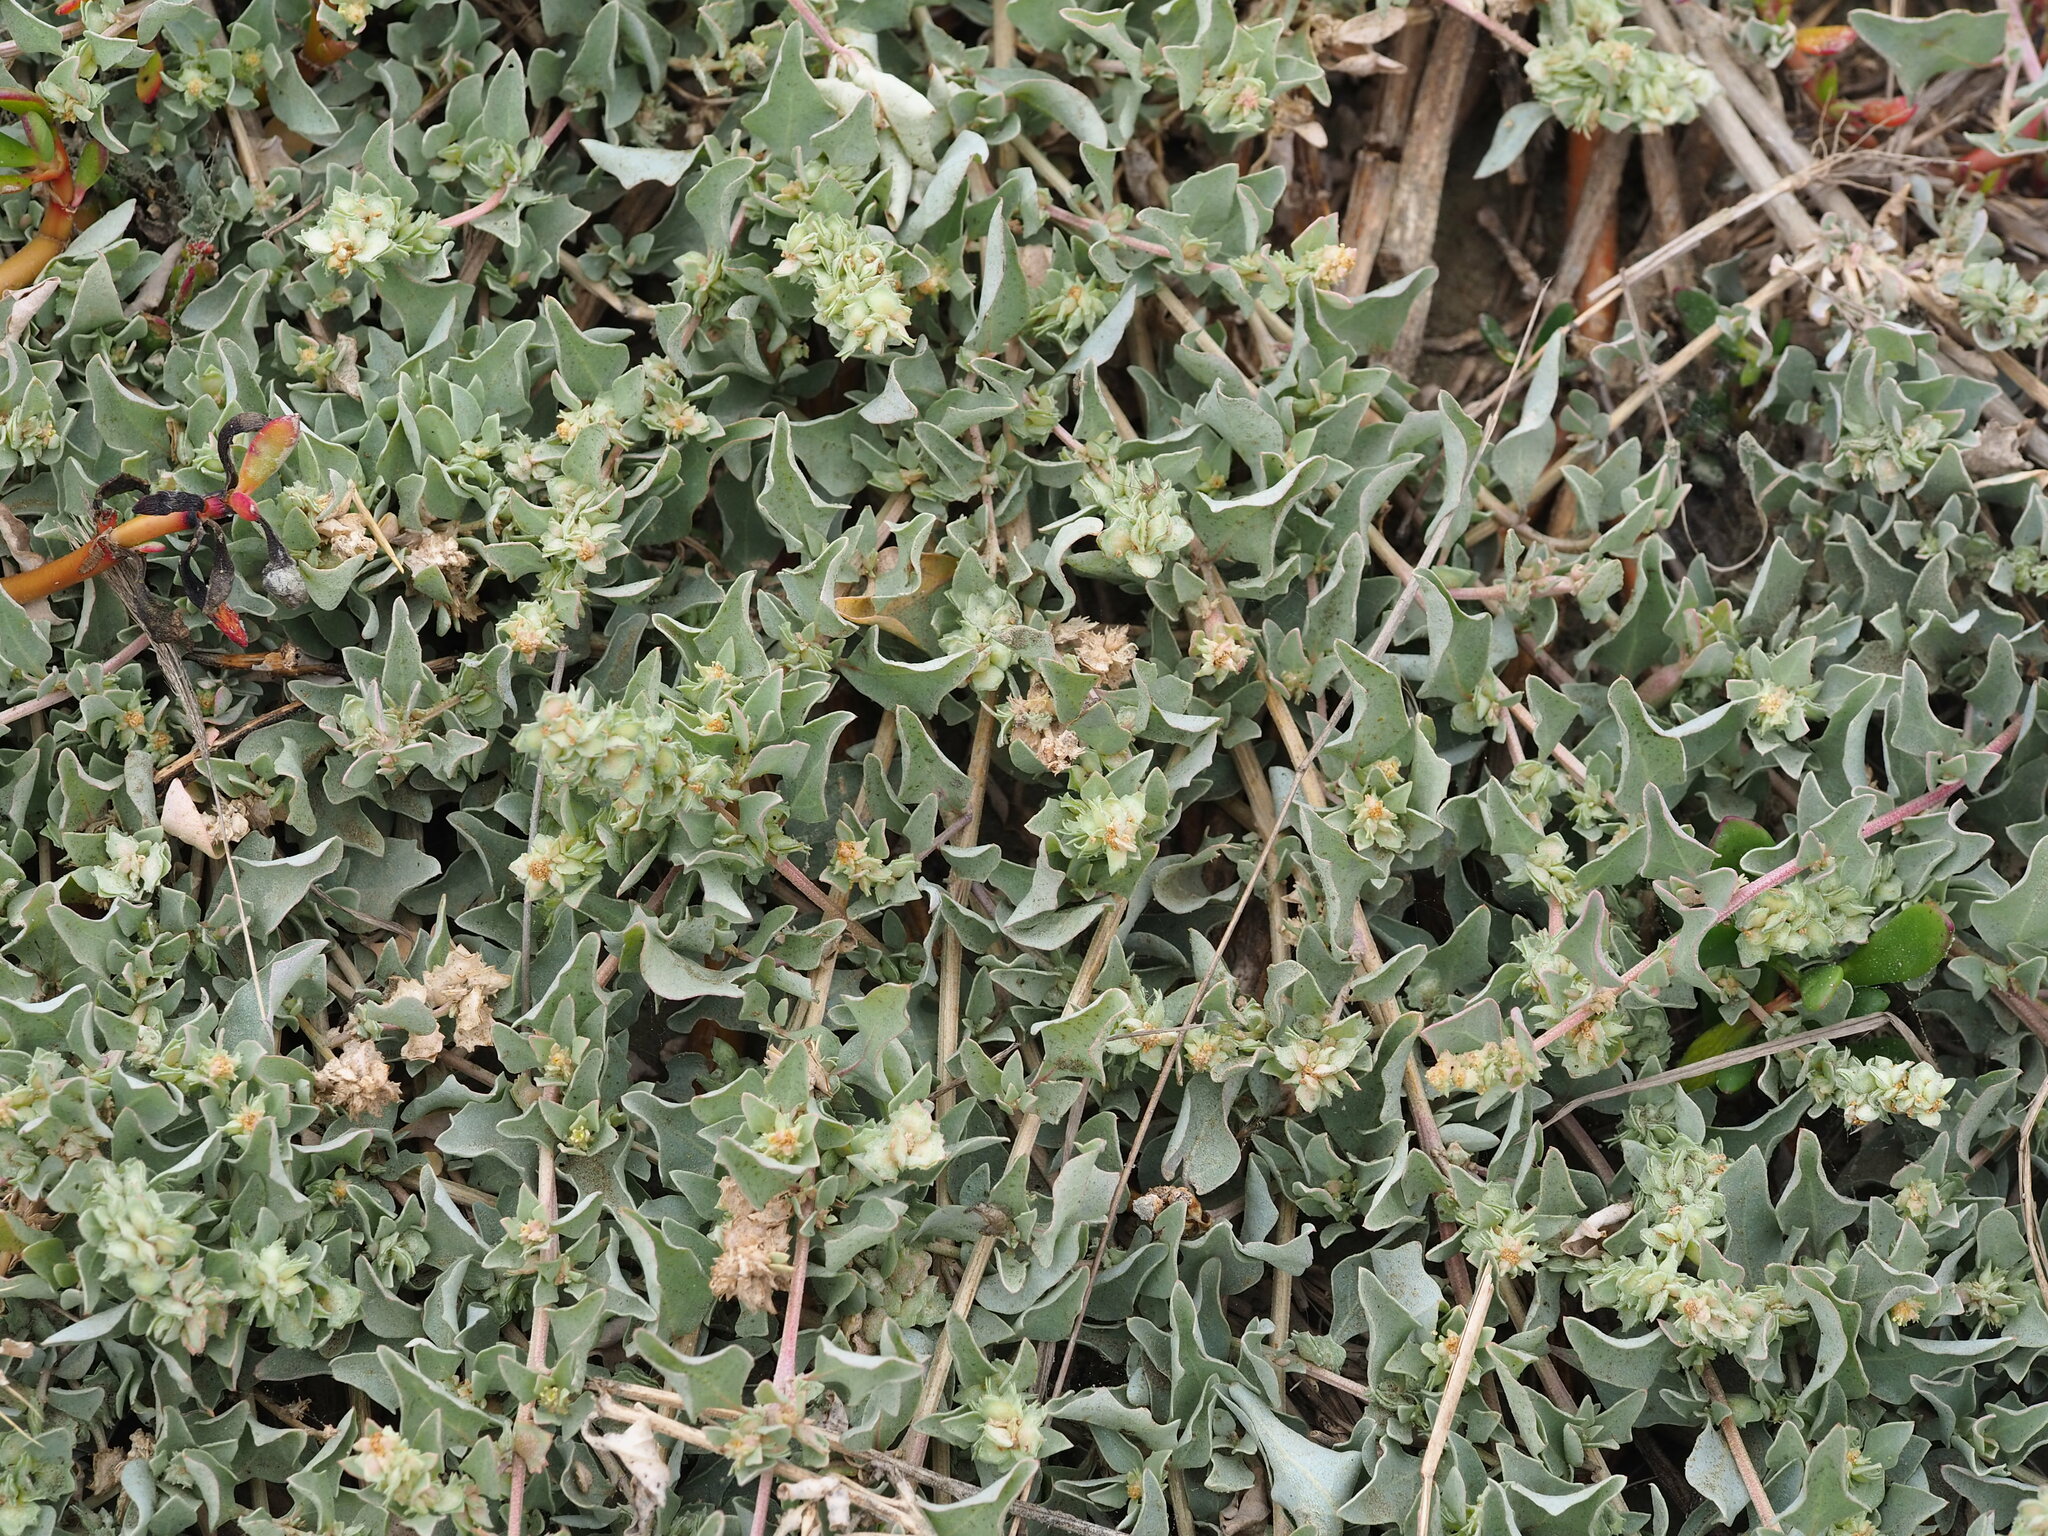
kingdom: Plantae
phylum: Tracheophyta
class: Magnoliopsida
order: Caryophyllales
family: Amaranthaceae
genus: Atriplex
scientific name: Atriplex maximowicziana
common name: Maximowicz's saltbush
